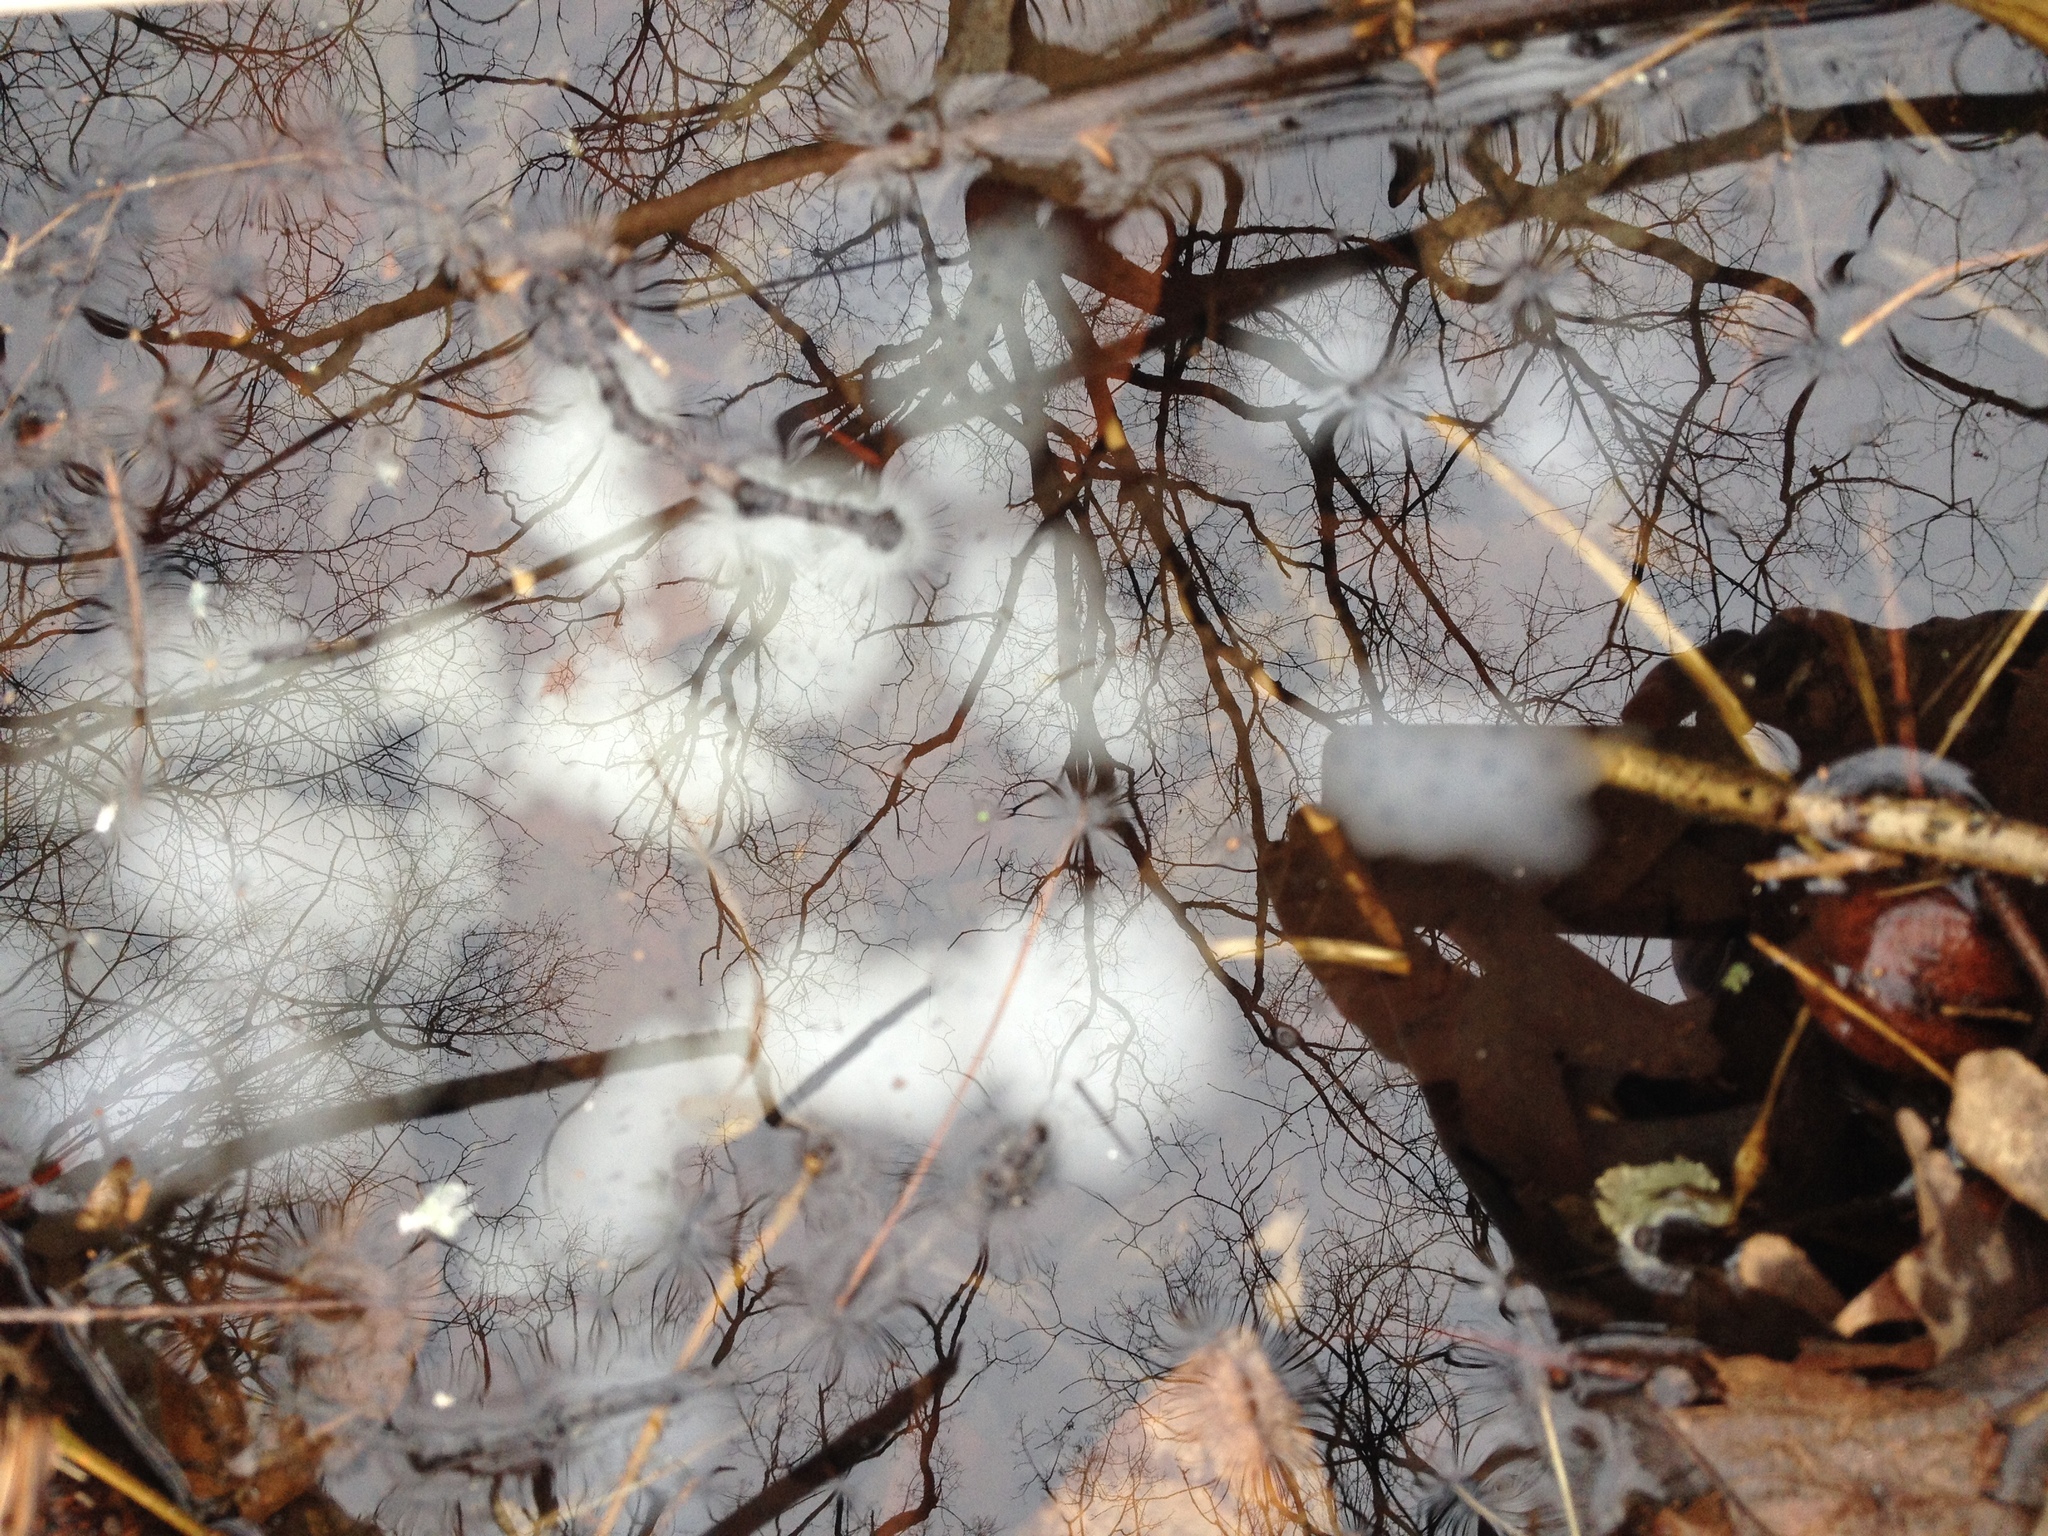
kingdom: Animalia
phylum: Chordata
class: Amphibia
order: Caudata
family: Ambystomatidae
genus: Ambystoma
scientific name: Ambystoma maculatum
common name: Spotted salamander
